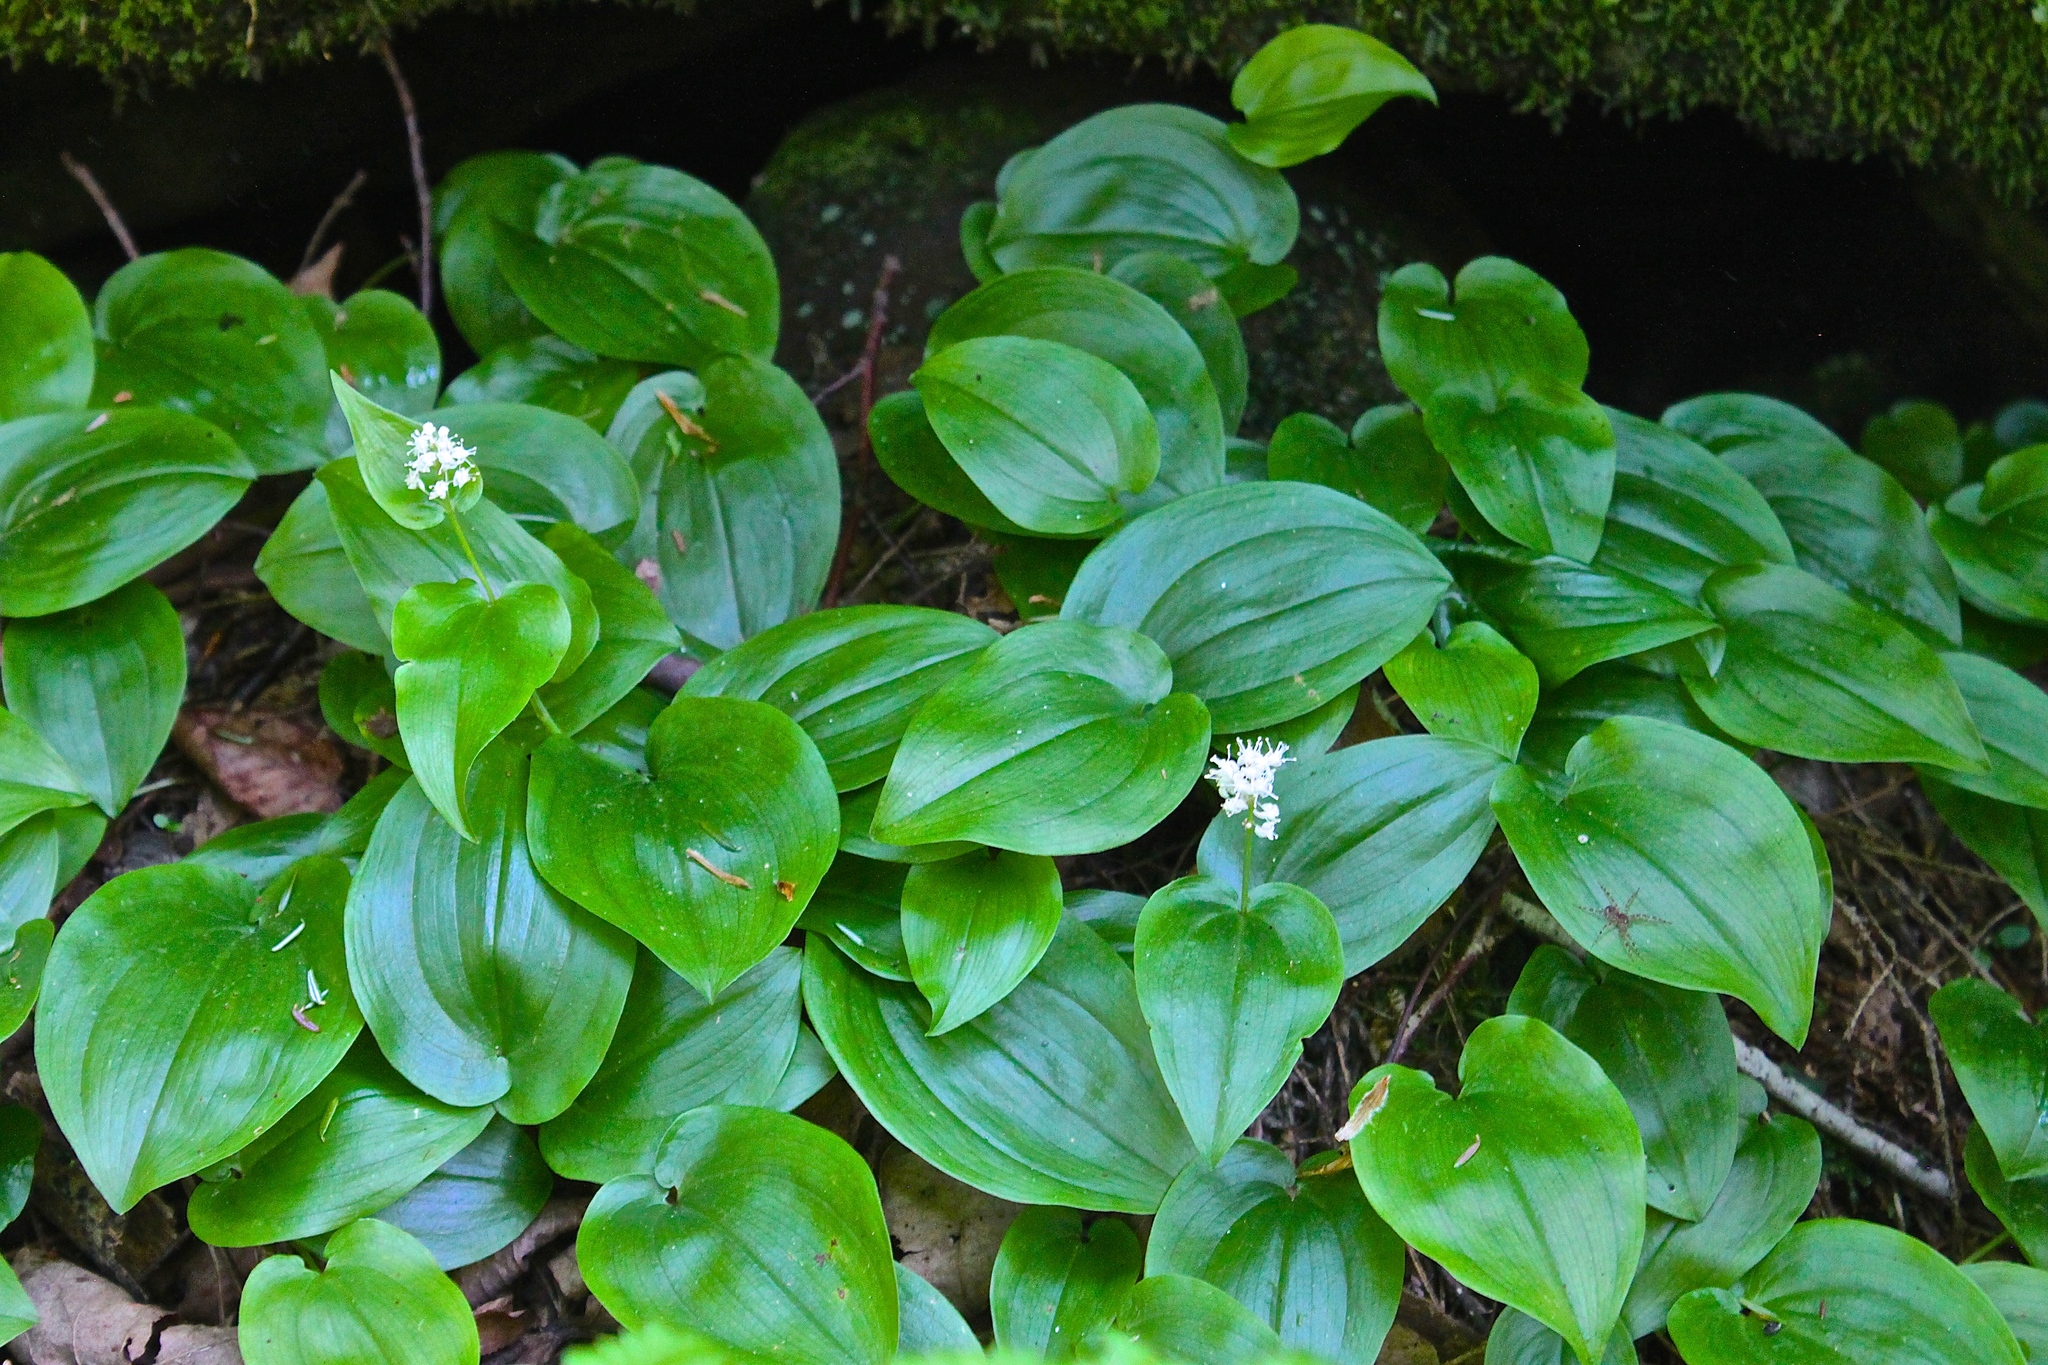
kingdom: Plantae
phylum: Tracheophyta
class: Liliopsida
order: Asparagales
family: Asparagaceae
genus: Maianthemum
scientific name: Maianthemum canadense
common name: False lily-of-the-valley
